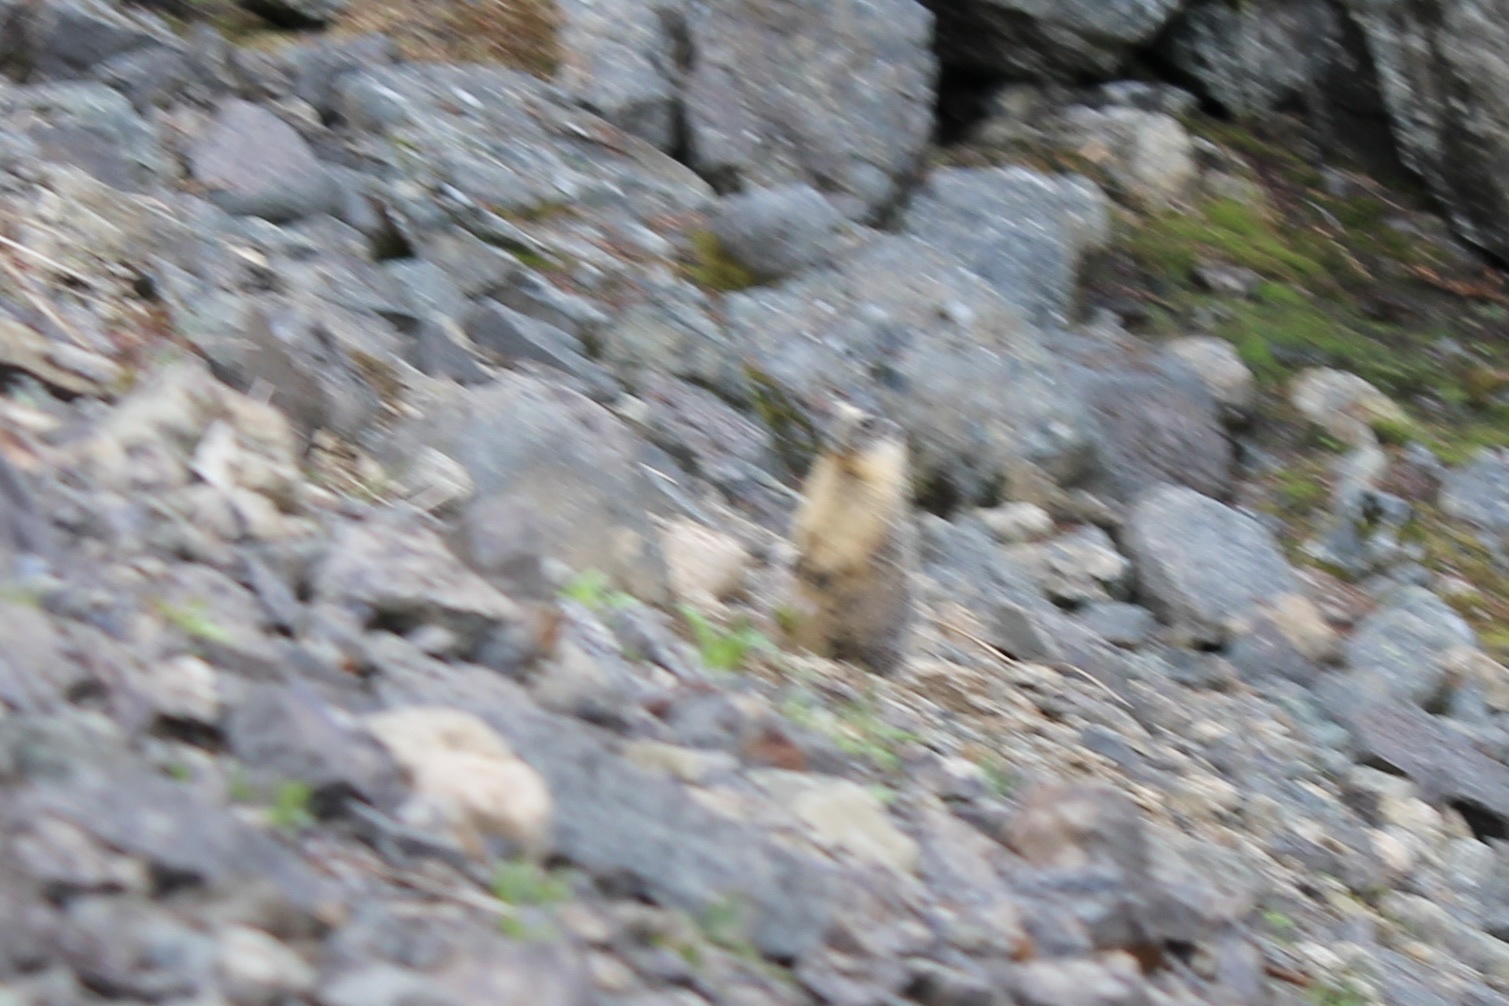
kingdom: Animalia
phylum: Chordata
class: Mammalia
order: Rodentia
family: Sciuridae
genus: Marmota
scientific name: Marmota flaviventris
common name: Yellow-bellied marmot
